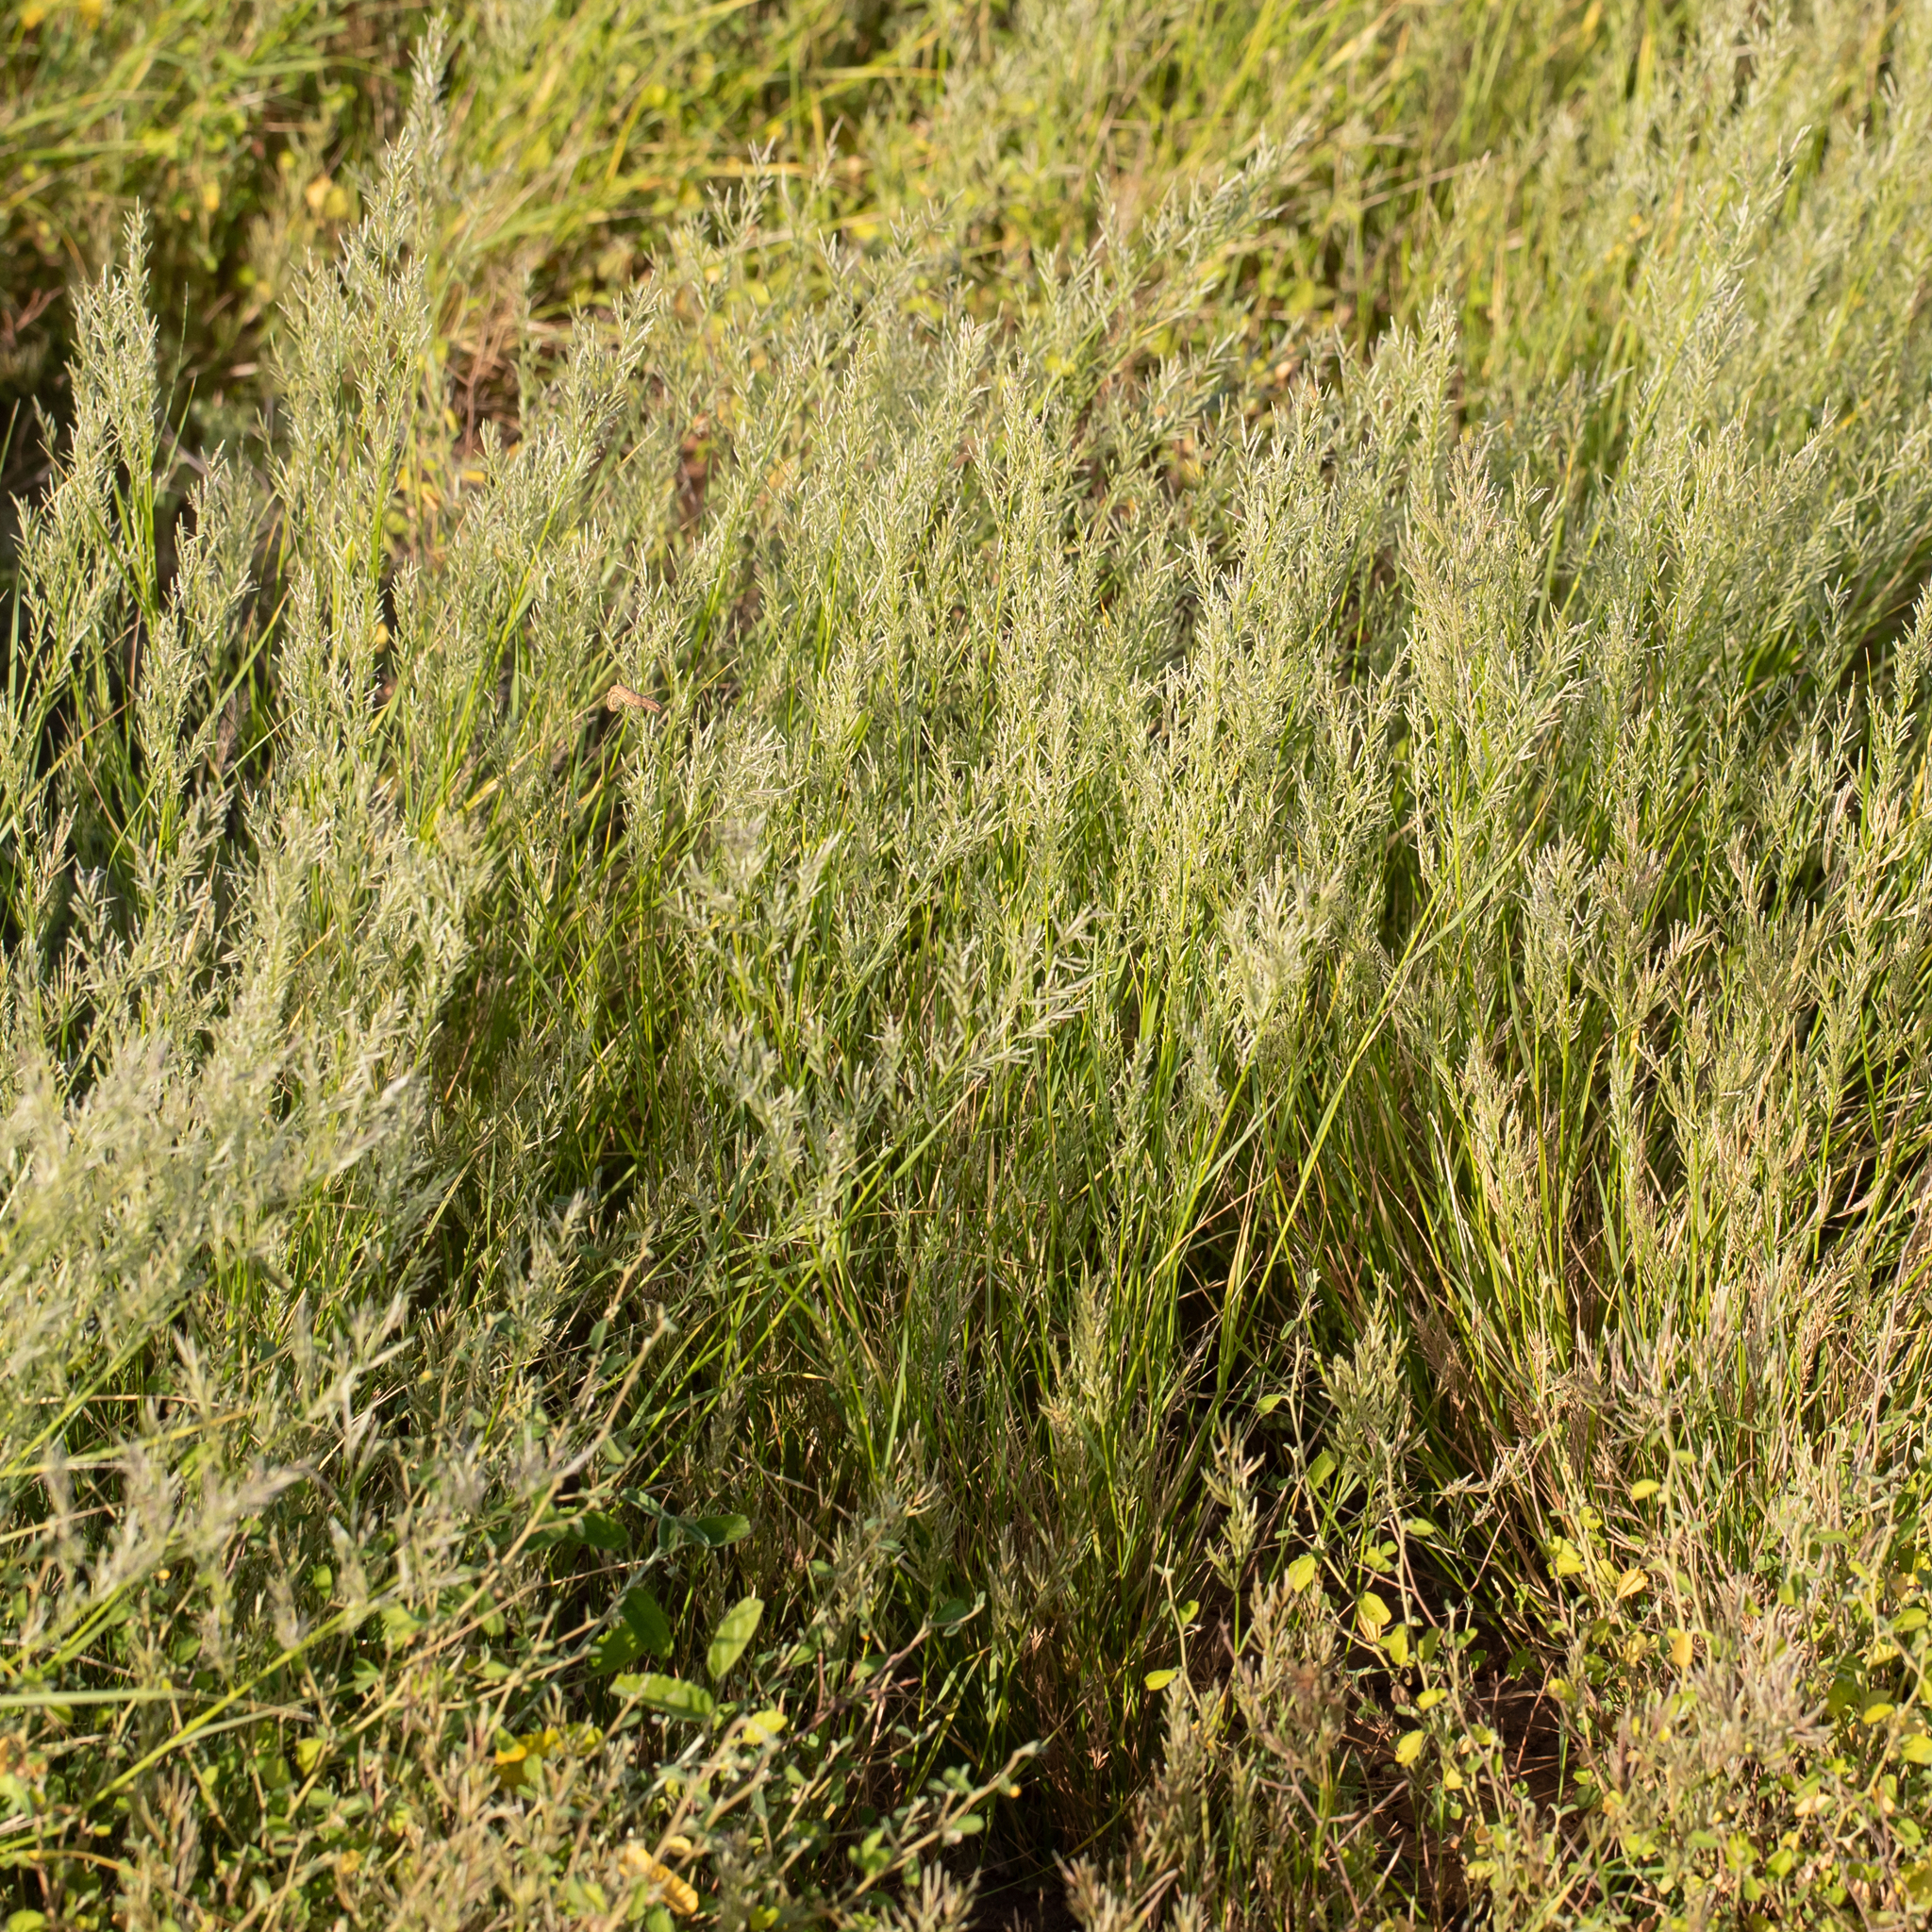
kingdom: Plantae
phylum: Tracheophyta
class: Liliopsida
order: Poales
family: Poaceae
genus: Eragrostis
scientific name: Eragrostis setifolia
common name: Bristleleaf lovegrass
